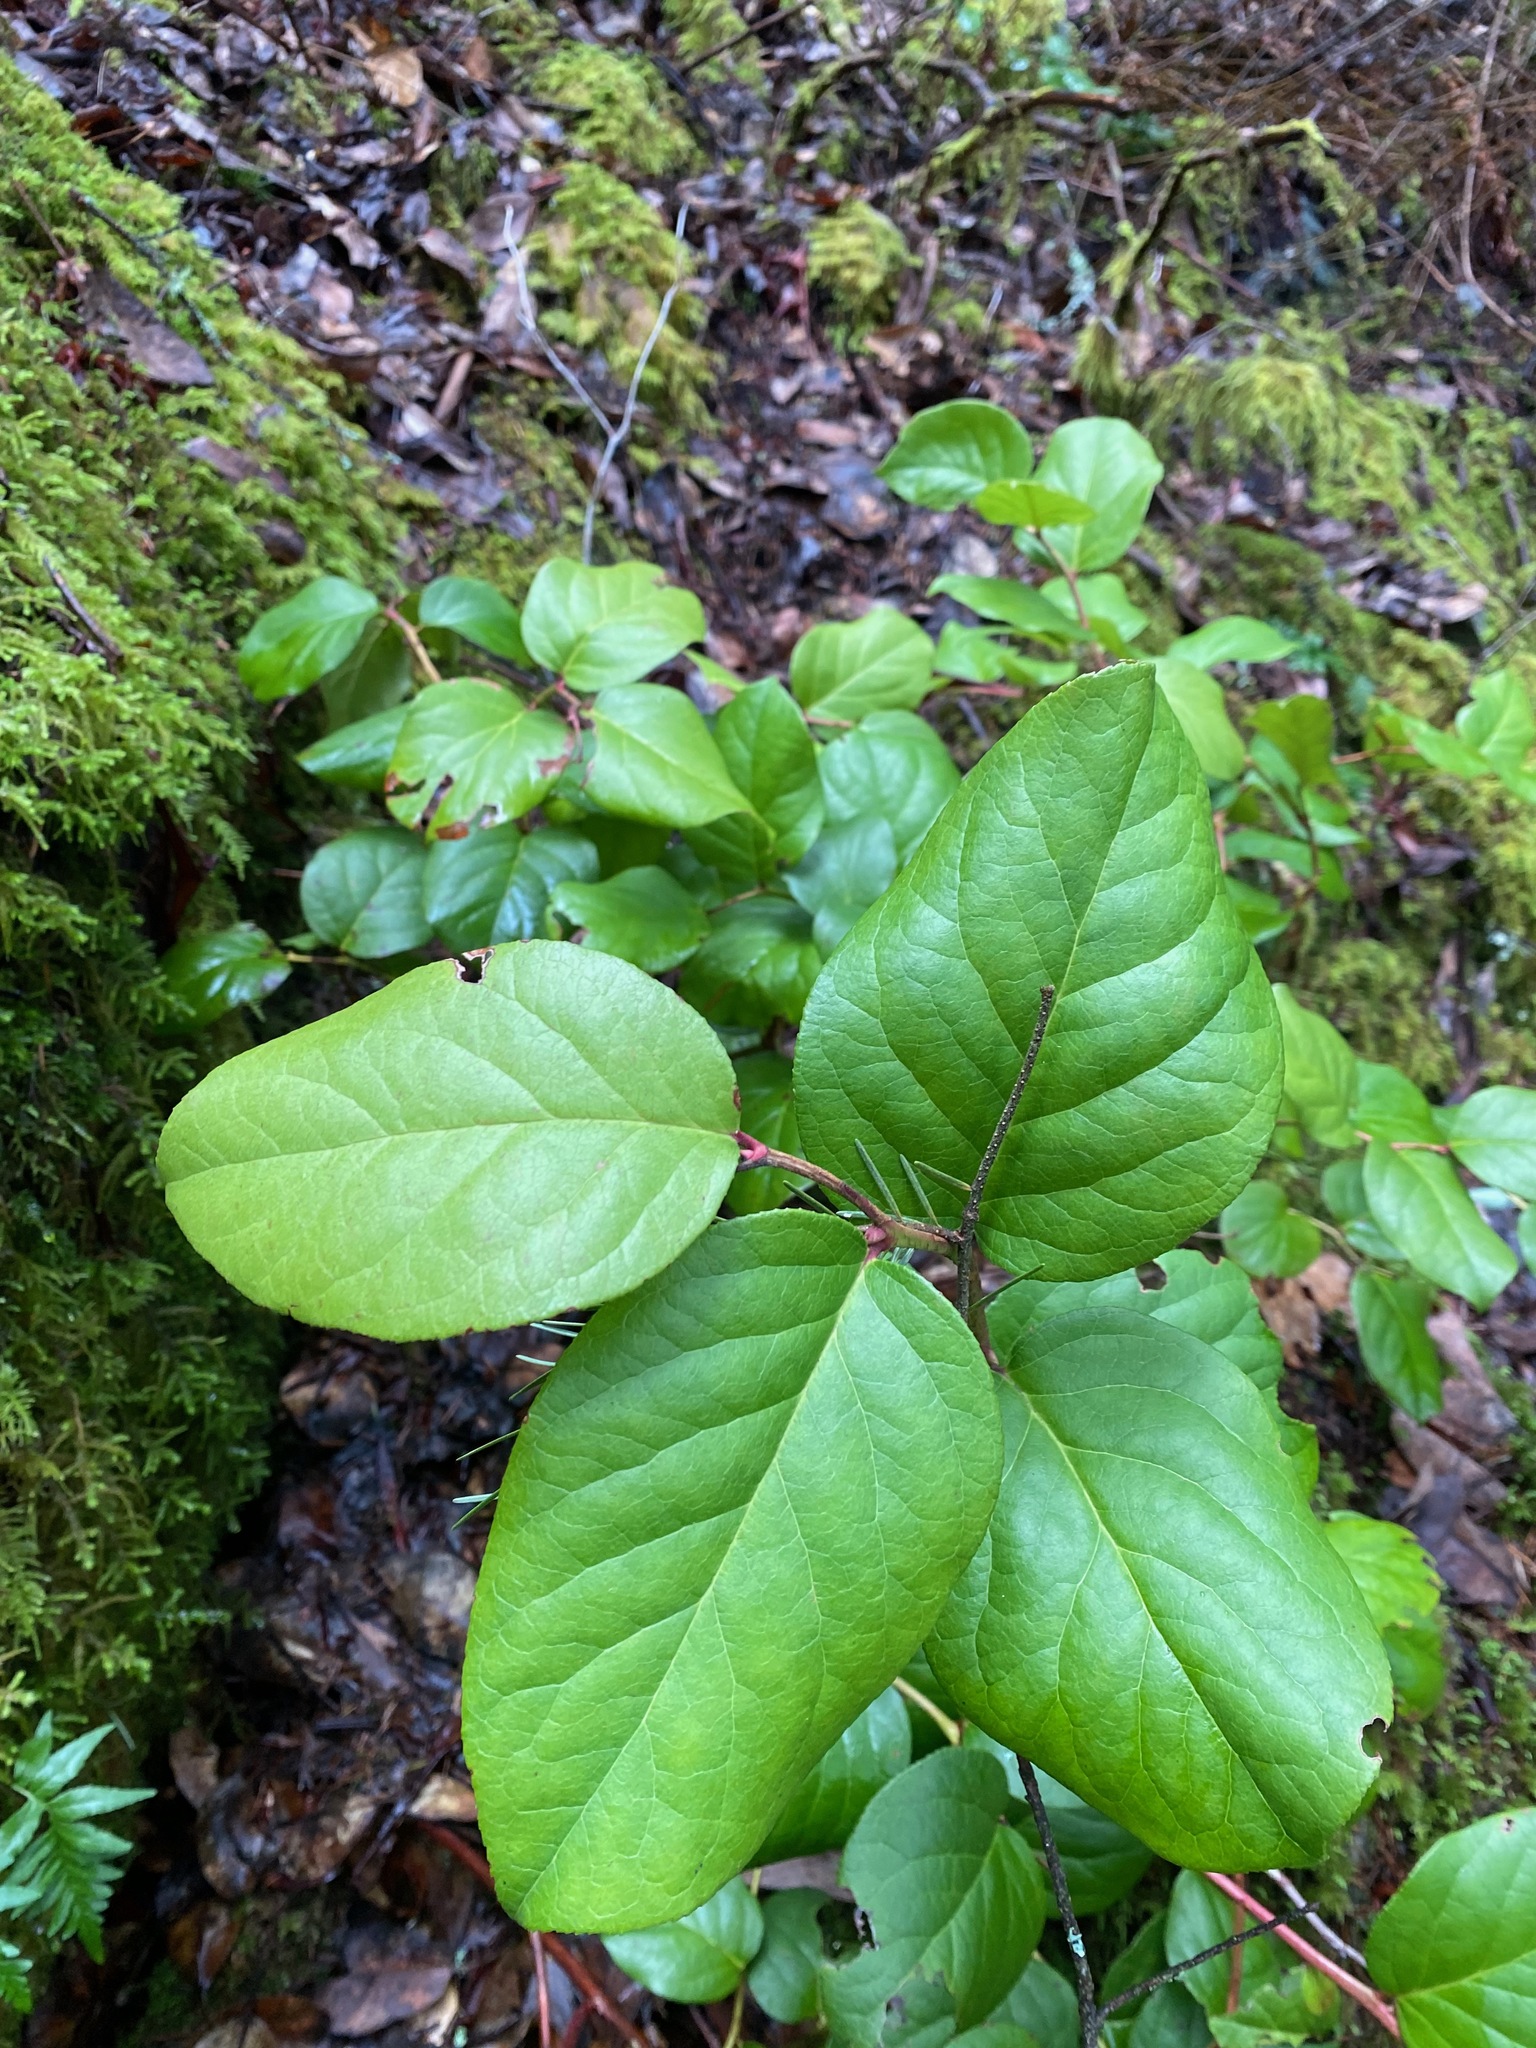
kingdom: Plantae
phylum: Tracheophyta
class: Magnoliopsida
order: Ericales
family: Ericaceae
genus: Gaultheria
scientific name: Gaultheria shallon
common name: Shallon
